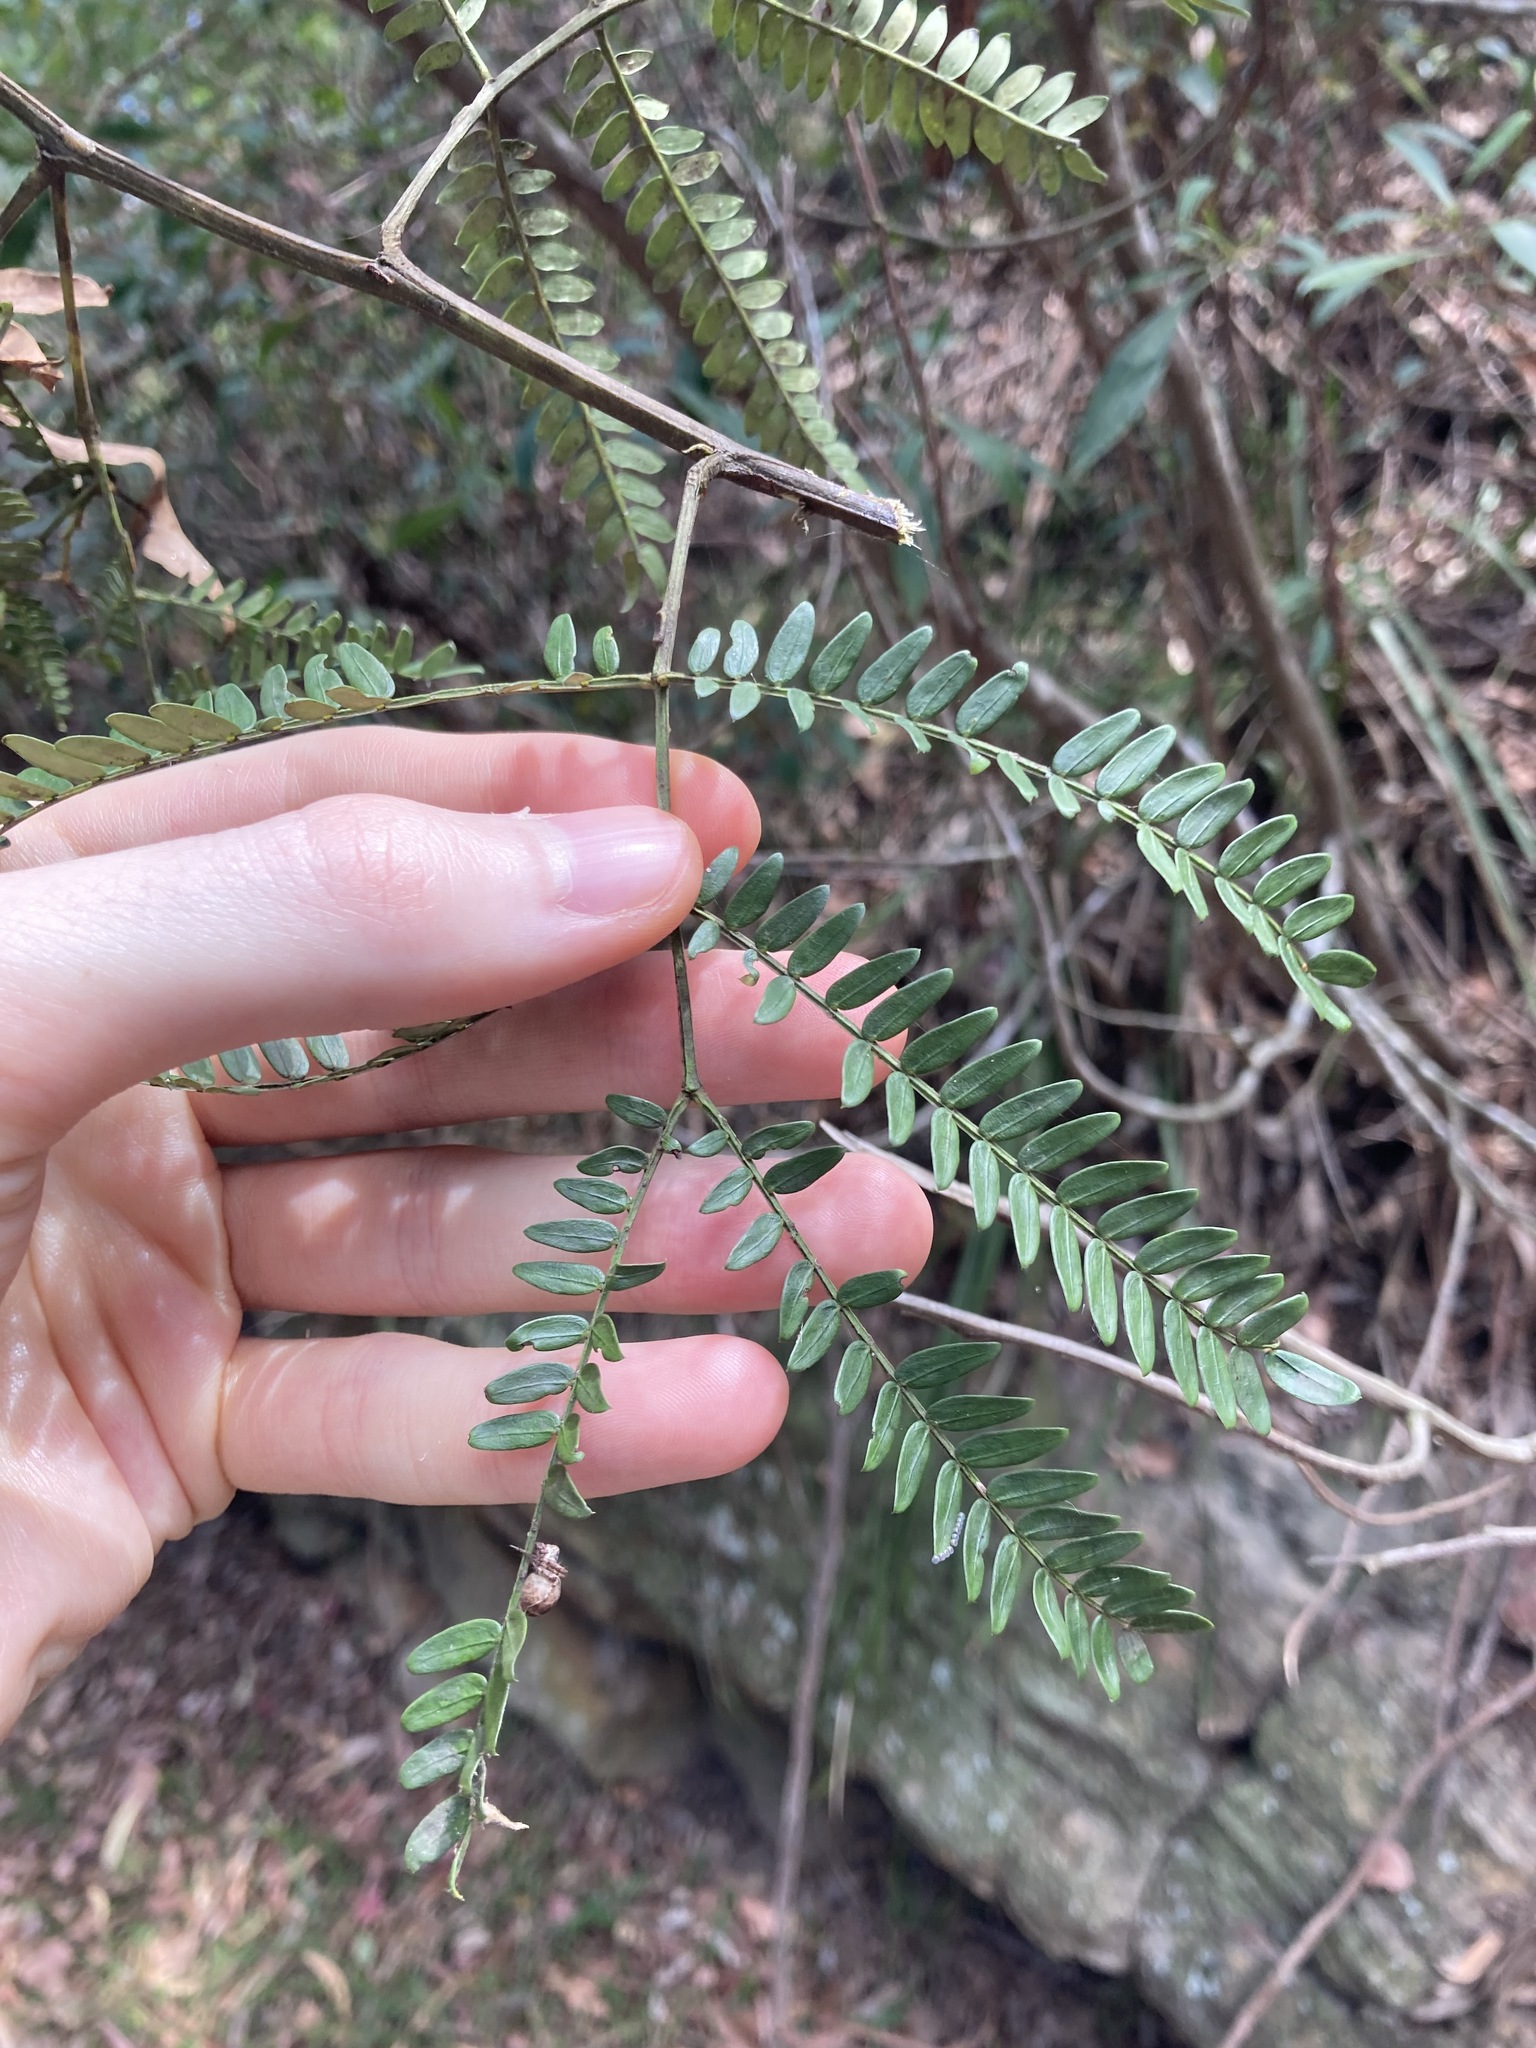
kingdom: Plantae
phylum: Tracheophyta
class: Magnoliopsida
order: Fabales
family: Fabaceae
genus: Acacia
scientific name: Acacia terminalis
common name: Cedar wattle
